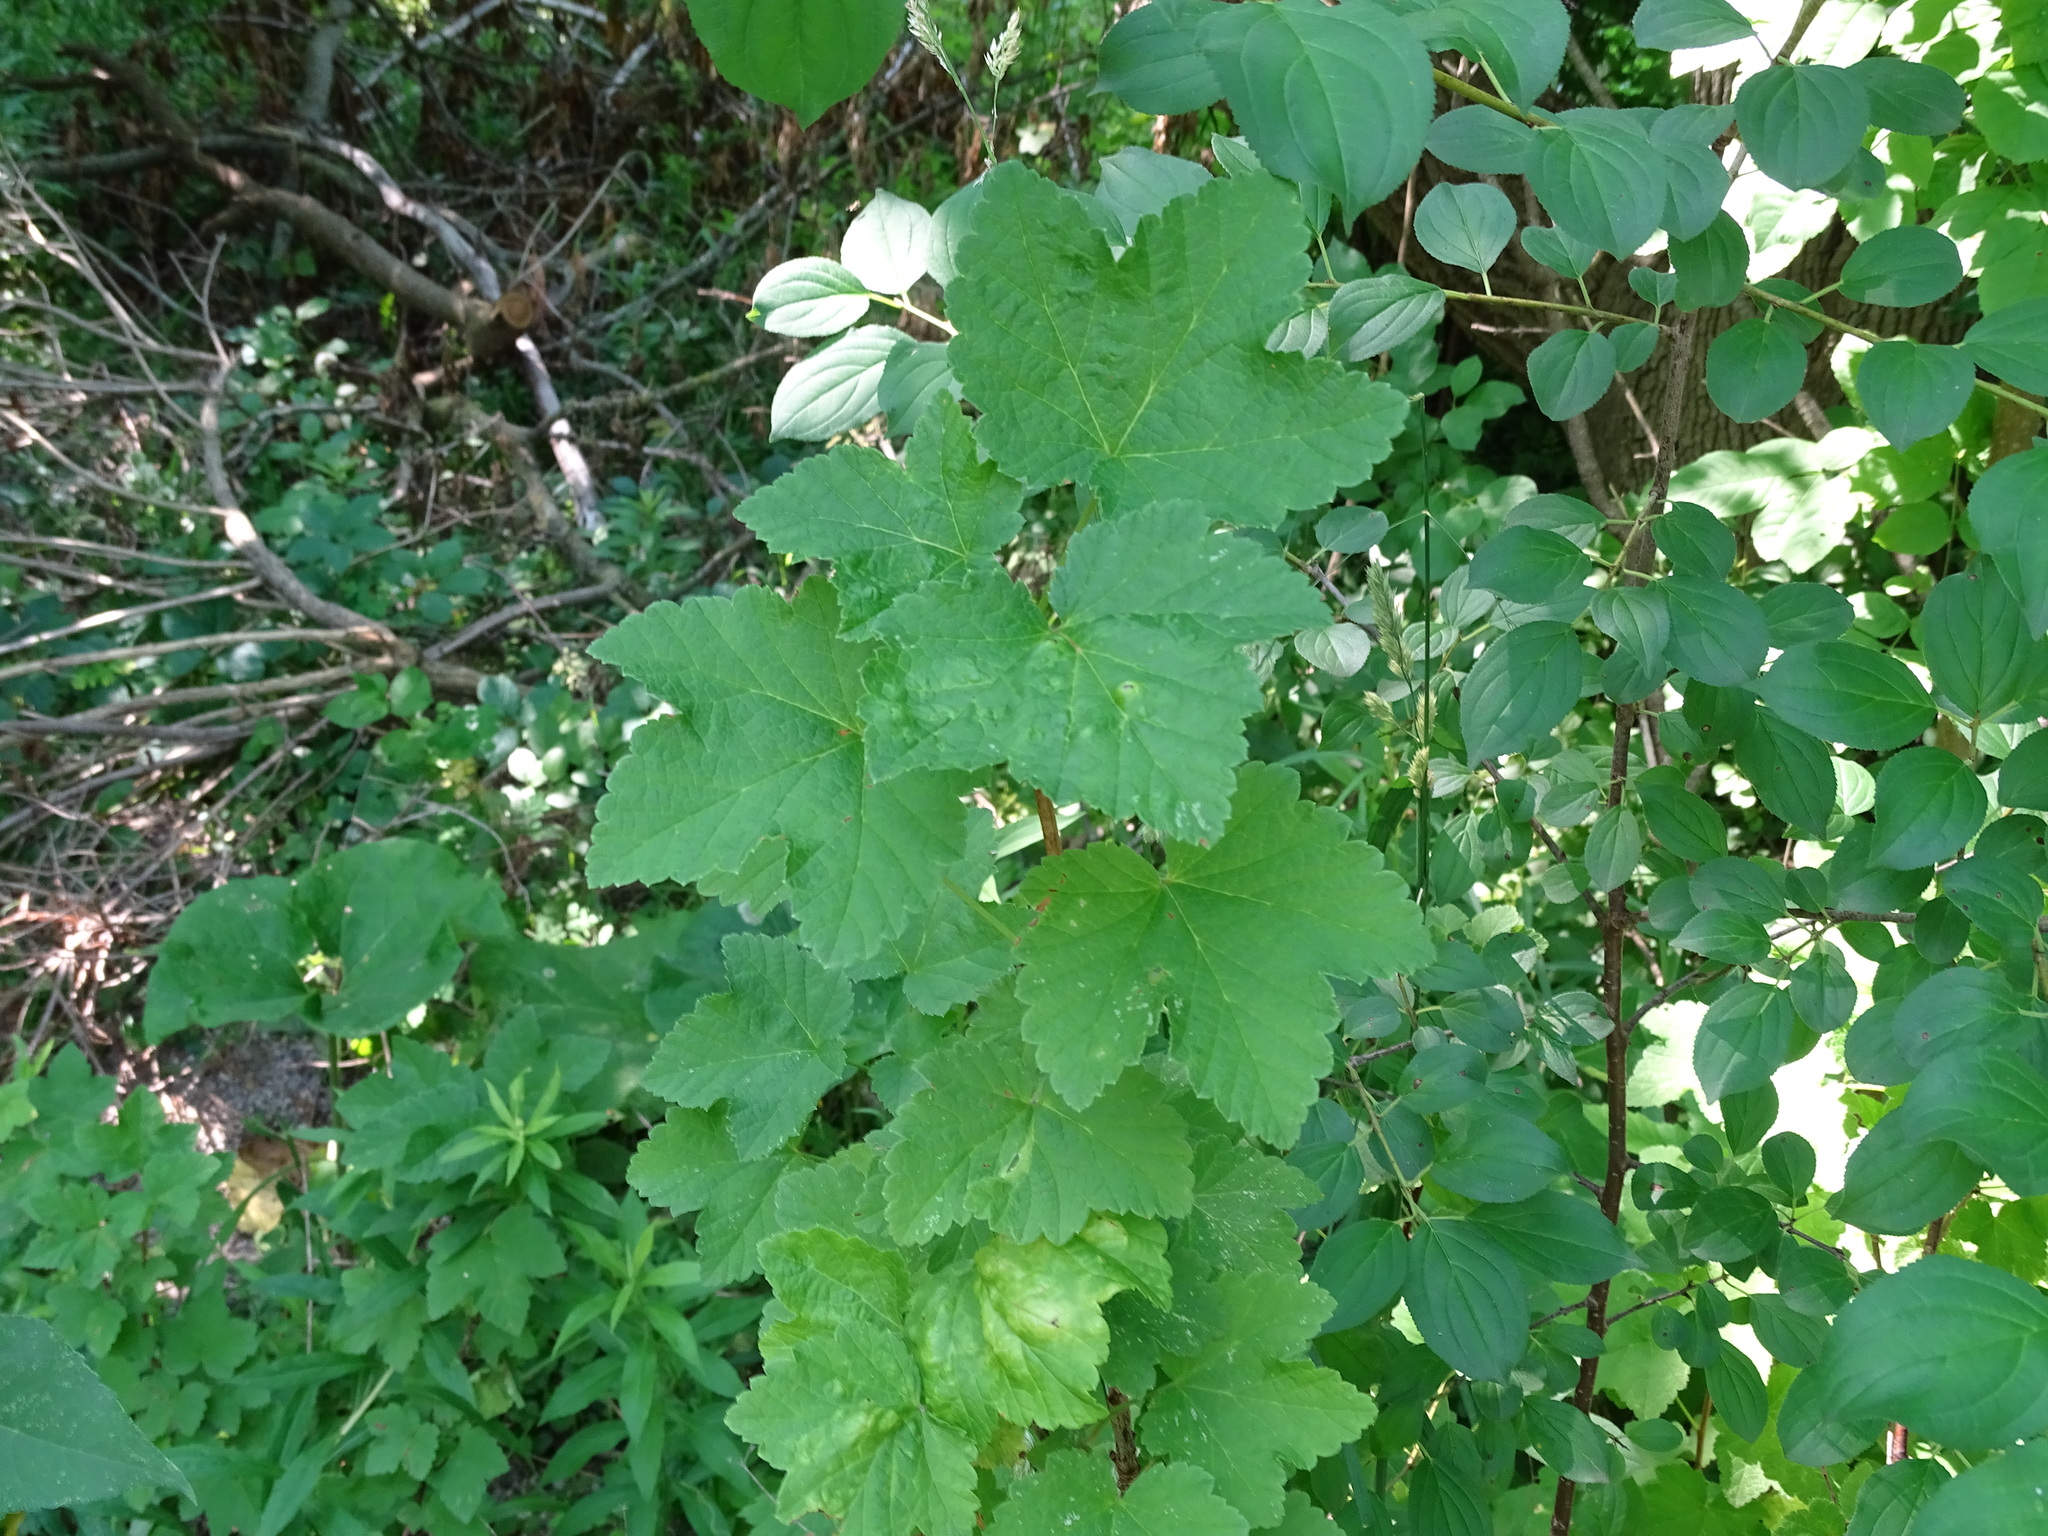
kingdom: Plantae
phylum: Tracheophyta
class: Magnoliopsida
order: Saxifragales
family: Grossulariaceae
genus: Ribes
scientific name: Ribes rubrum
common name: Red currant
